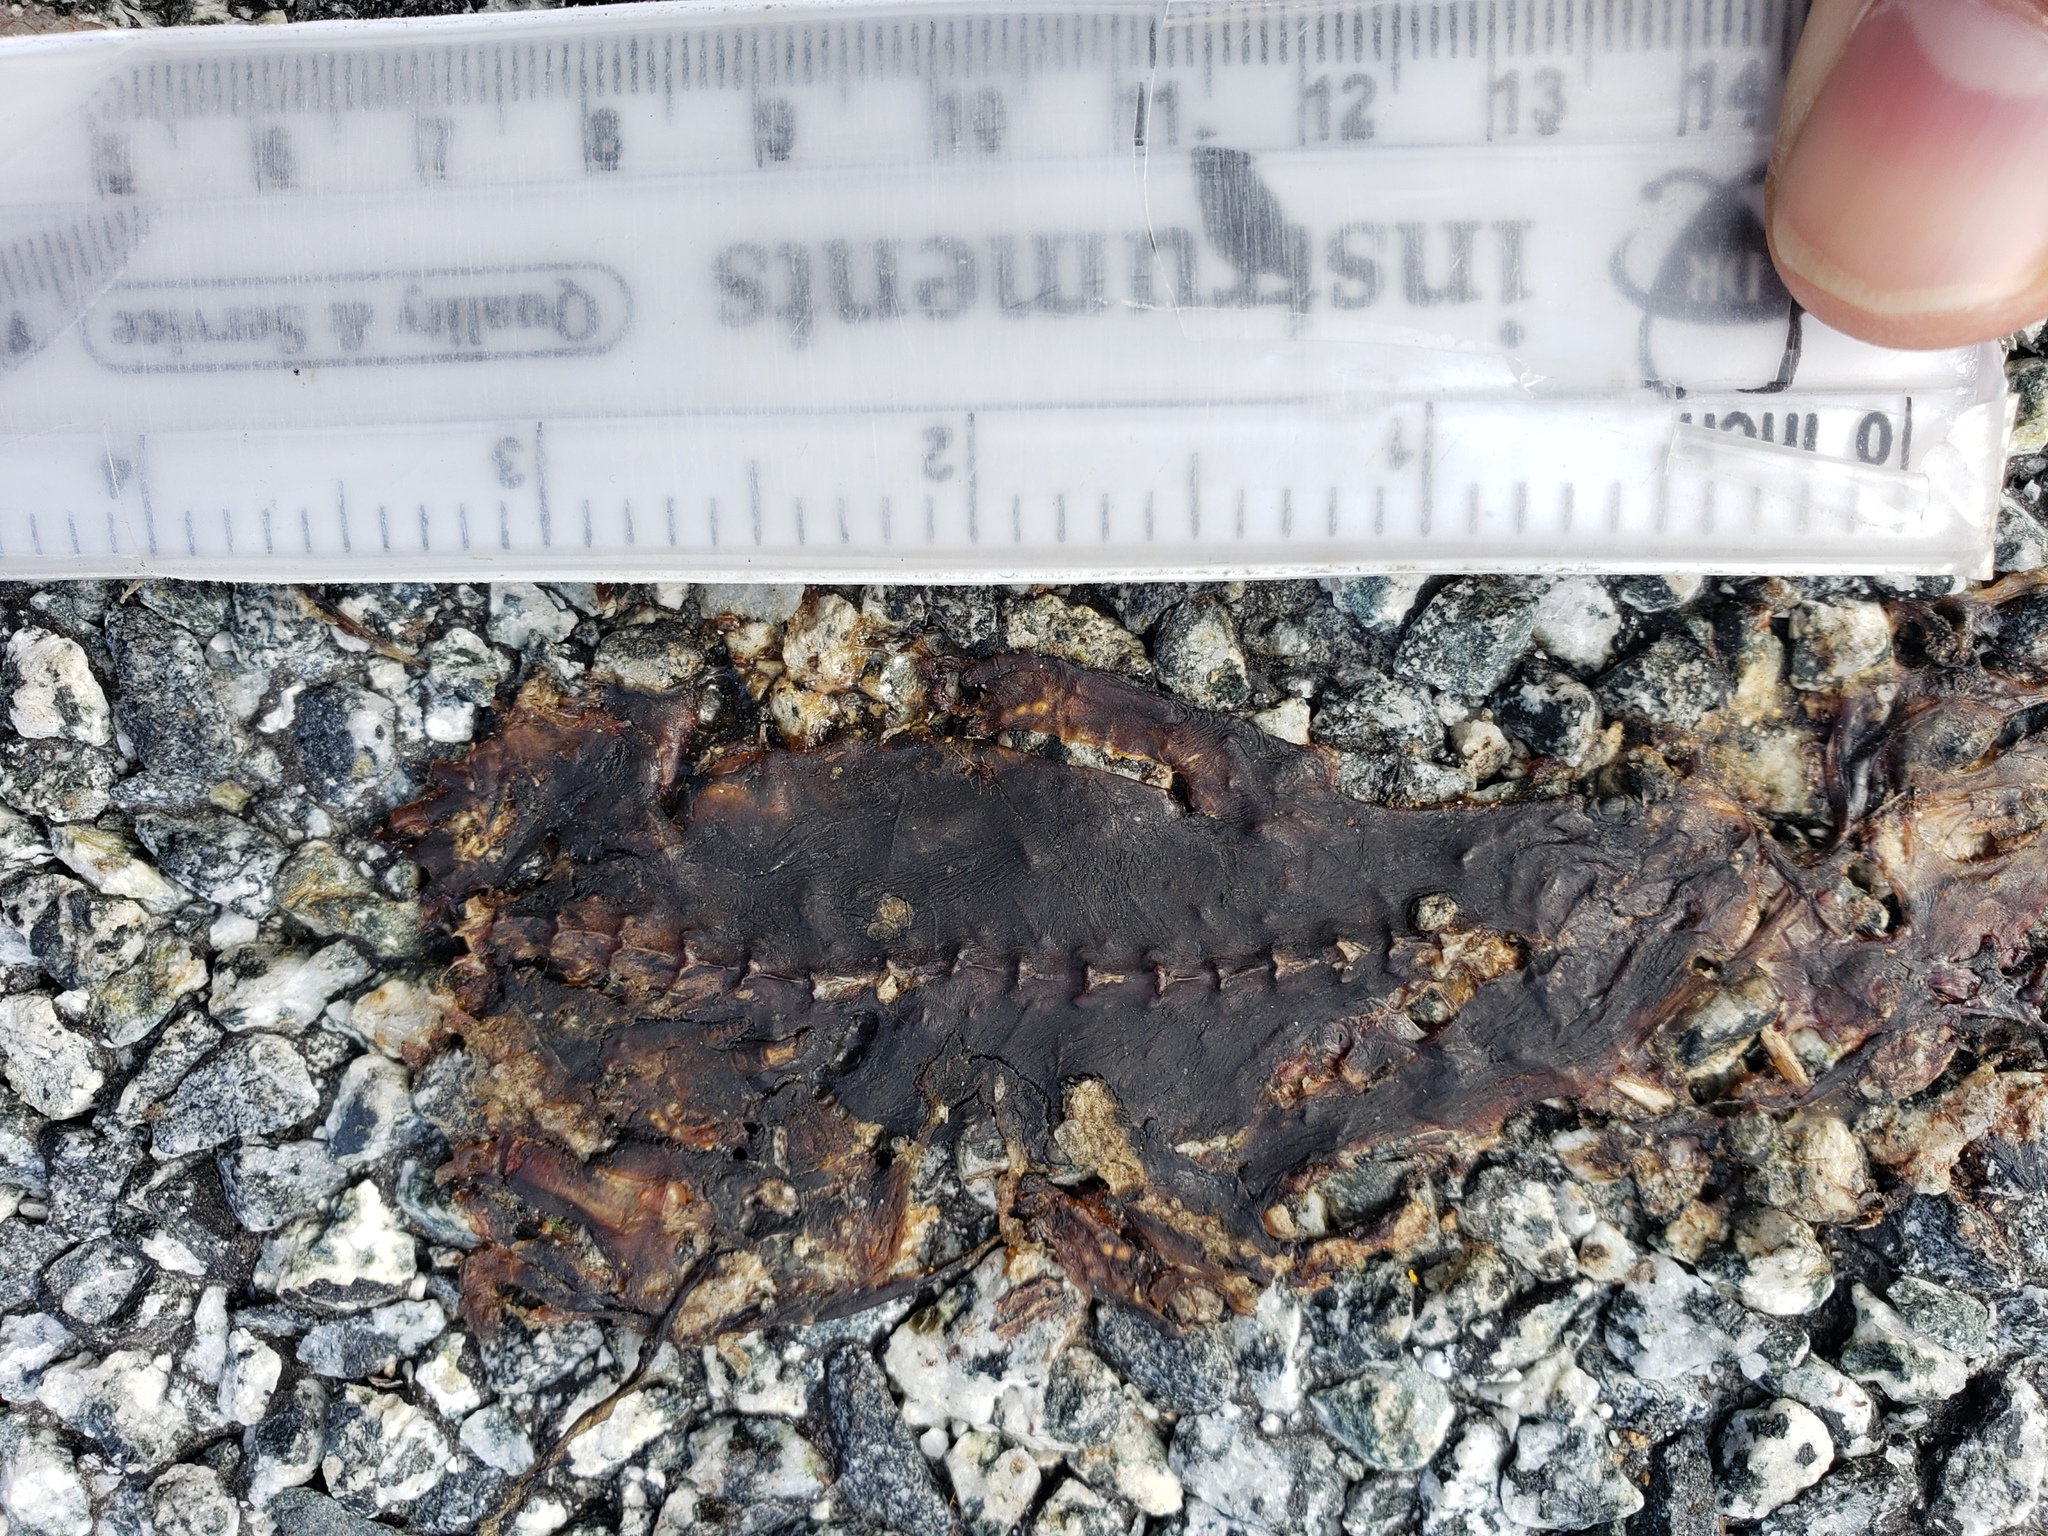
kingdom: Animalia
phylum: Chordata
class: Amphibia
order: Caudata
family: Salamandridae
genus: Taricha
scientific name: Taricha
